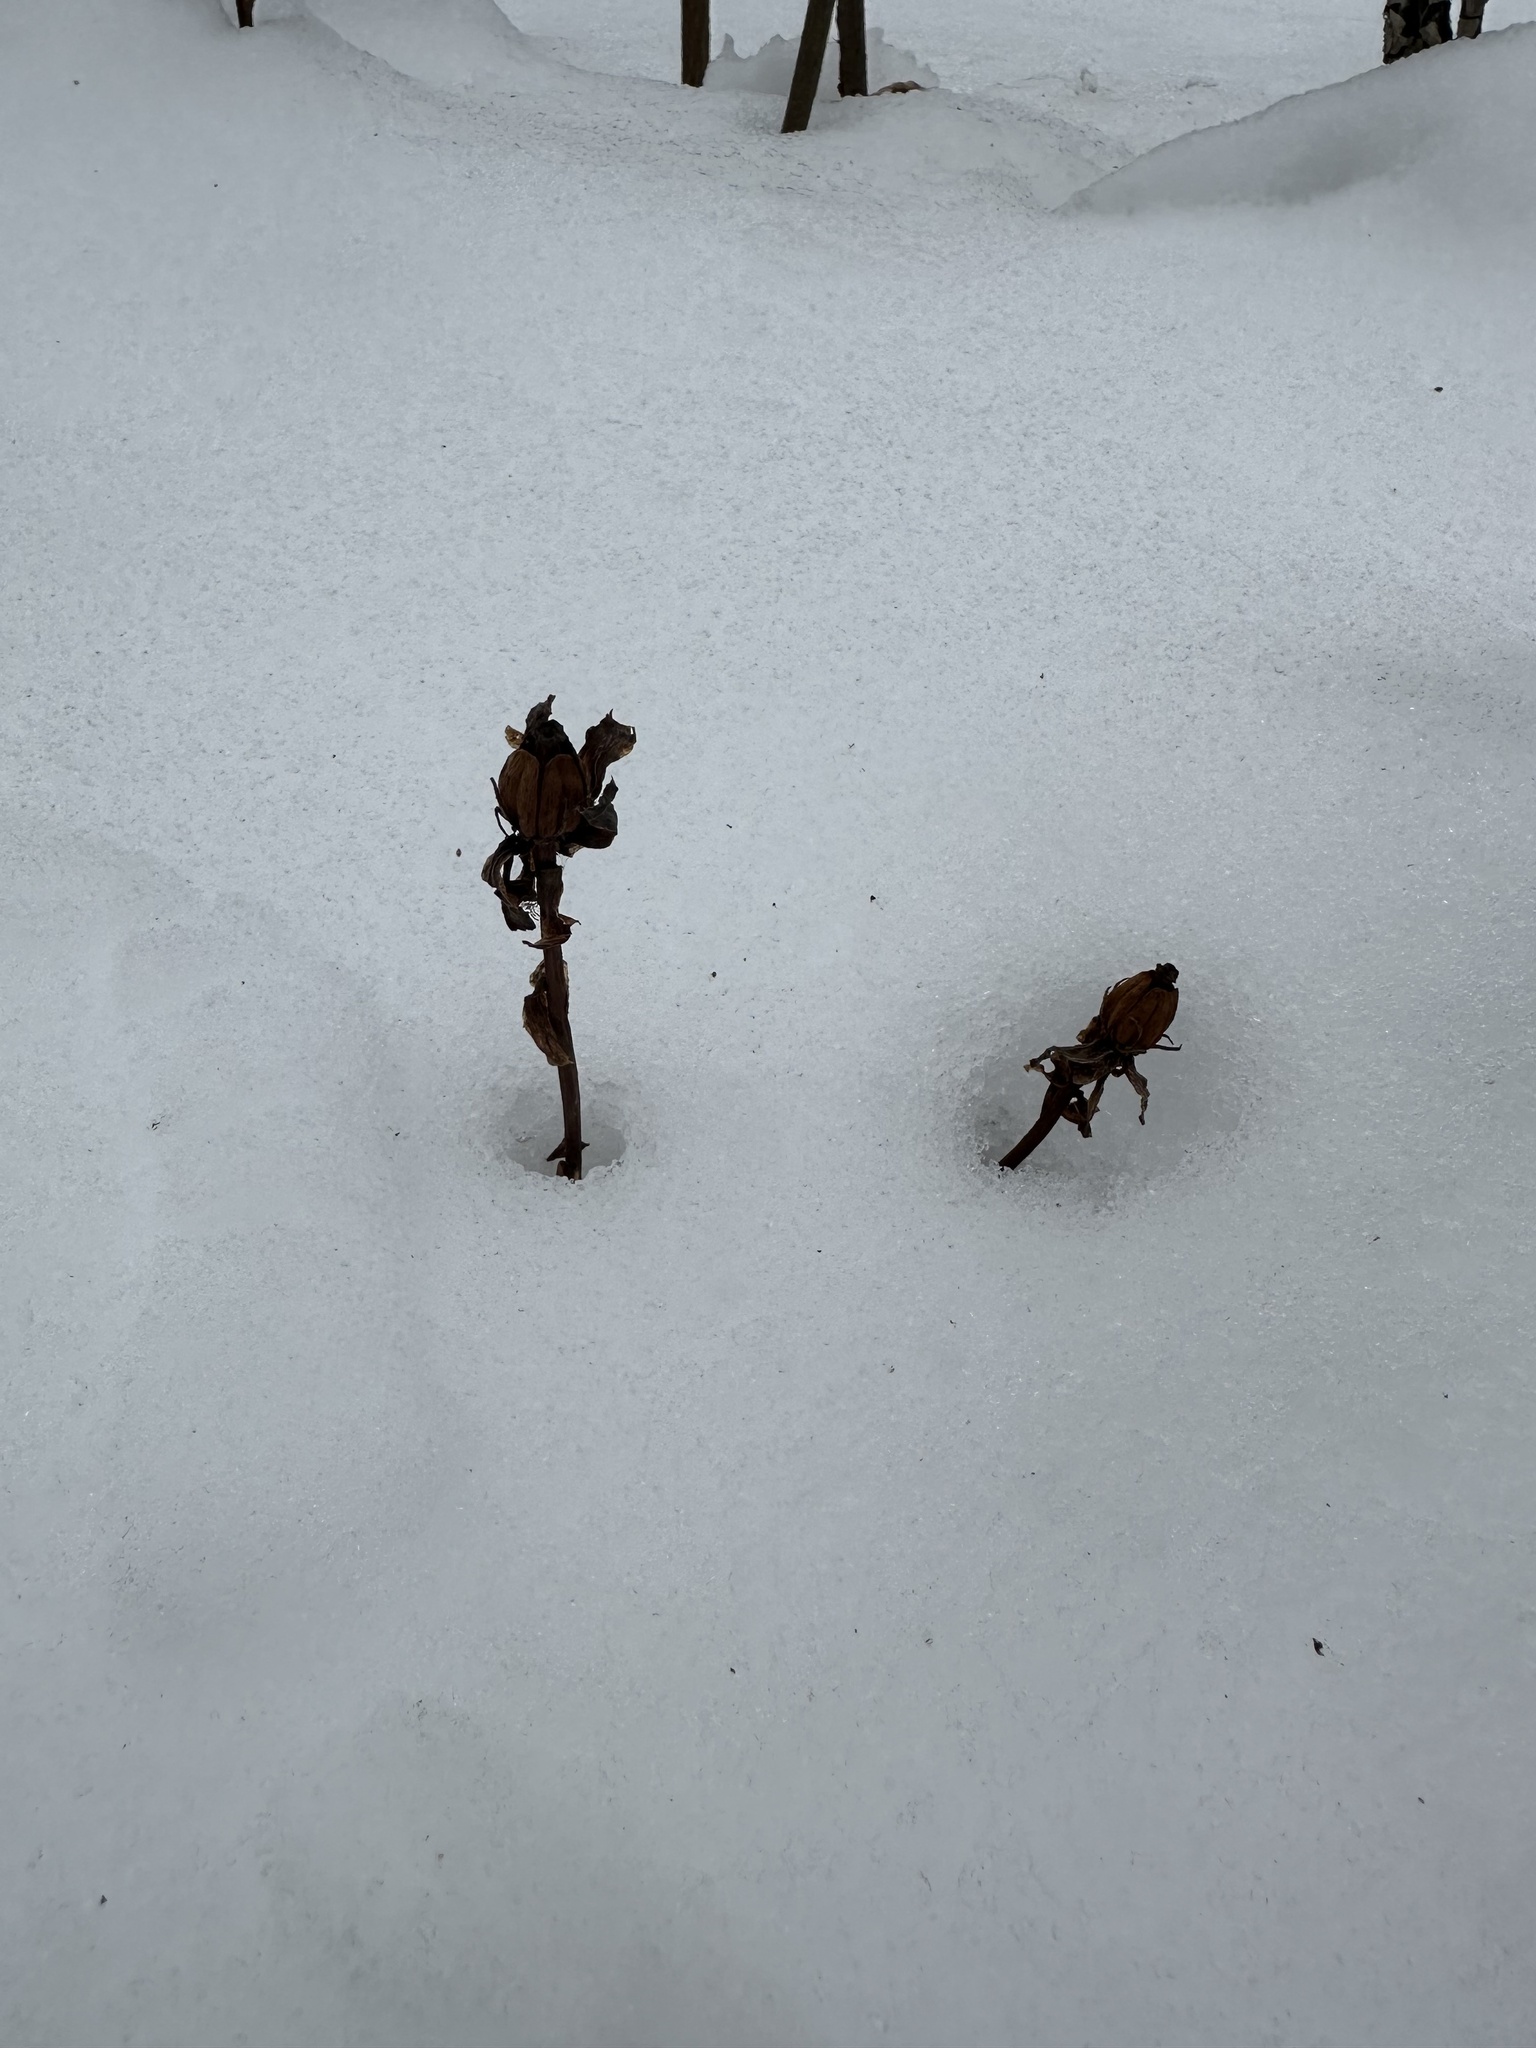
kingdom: Plantae
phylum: Tracheophyta
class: Magnoliopsida
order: Ericales
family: Ericaceae
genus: Monotropa
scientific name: Monotropa uniflora
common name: Convulsion root
